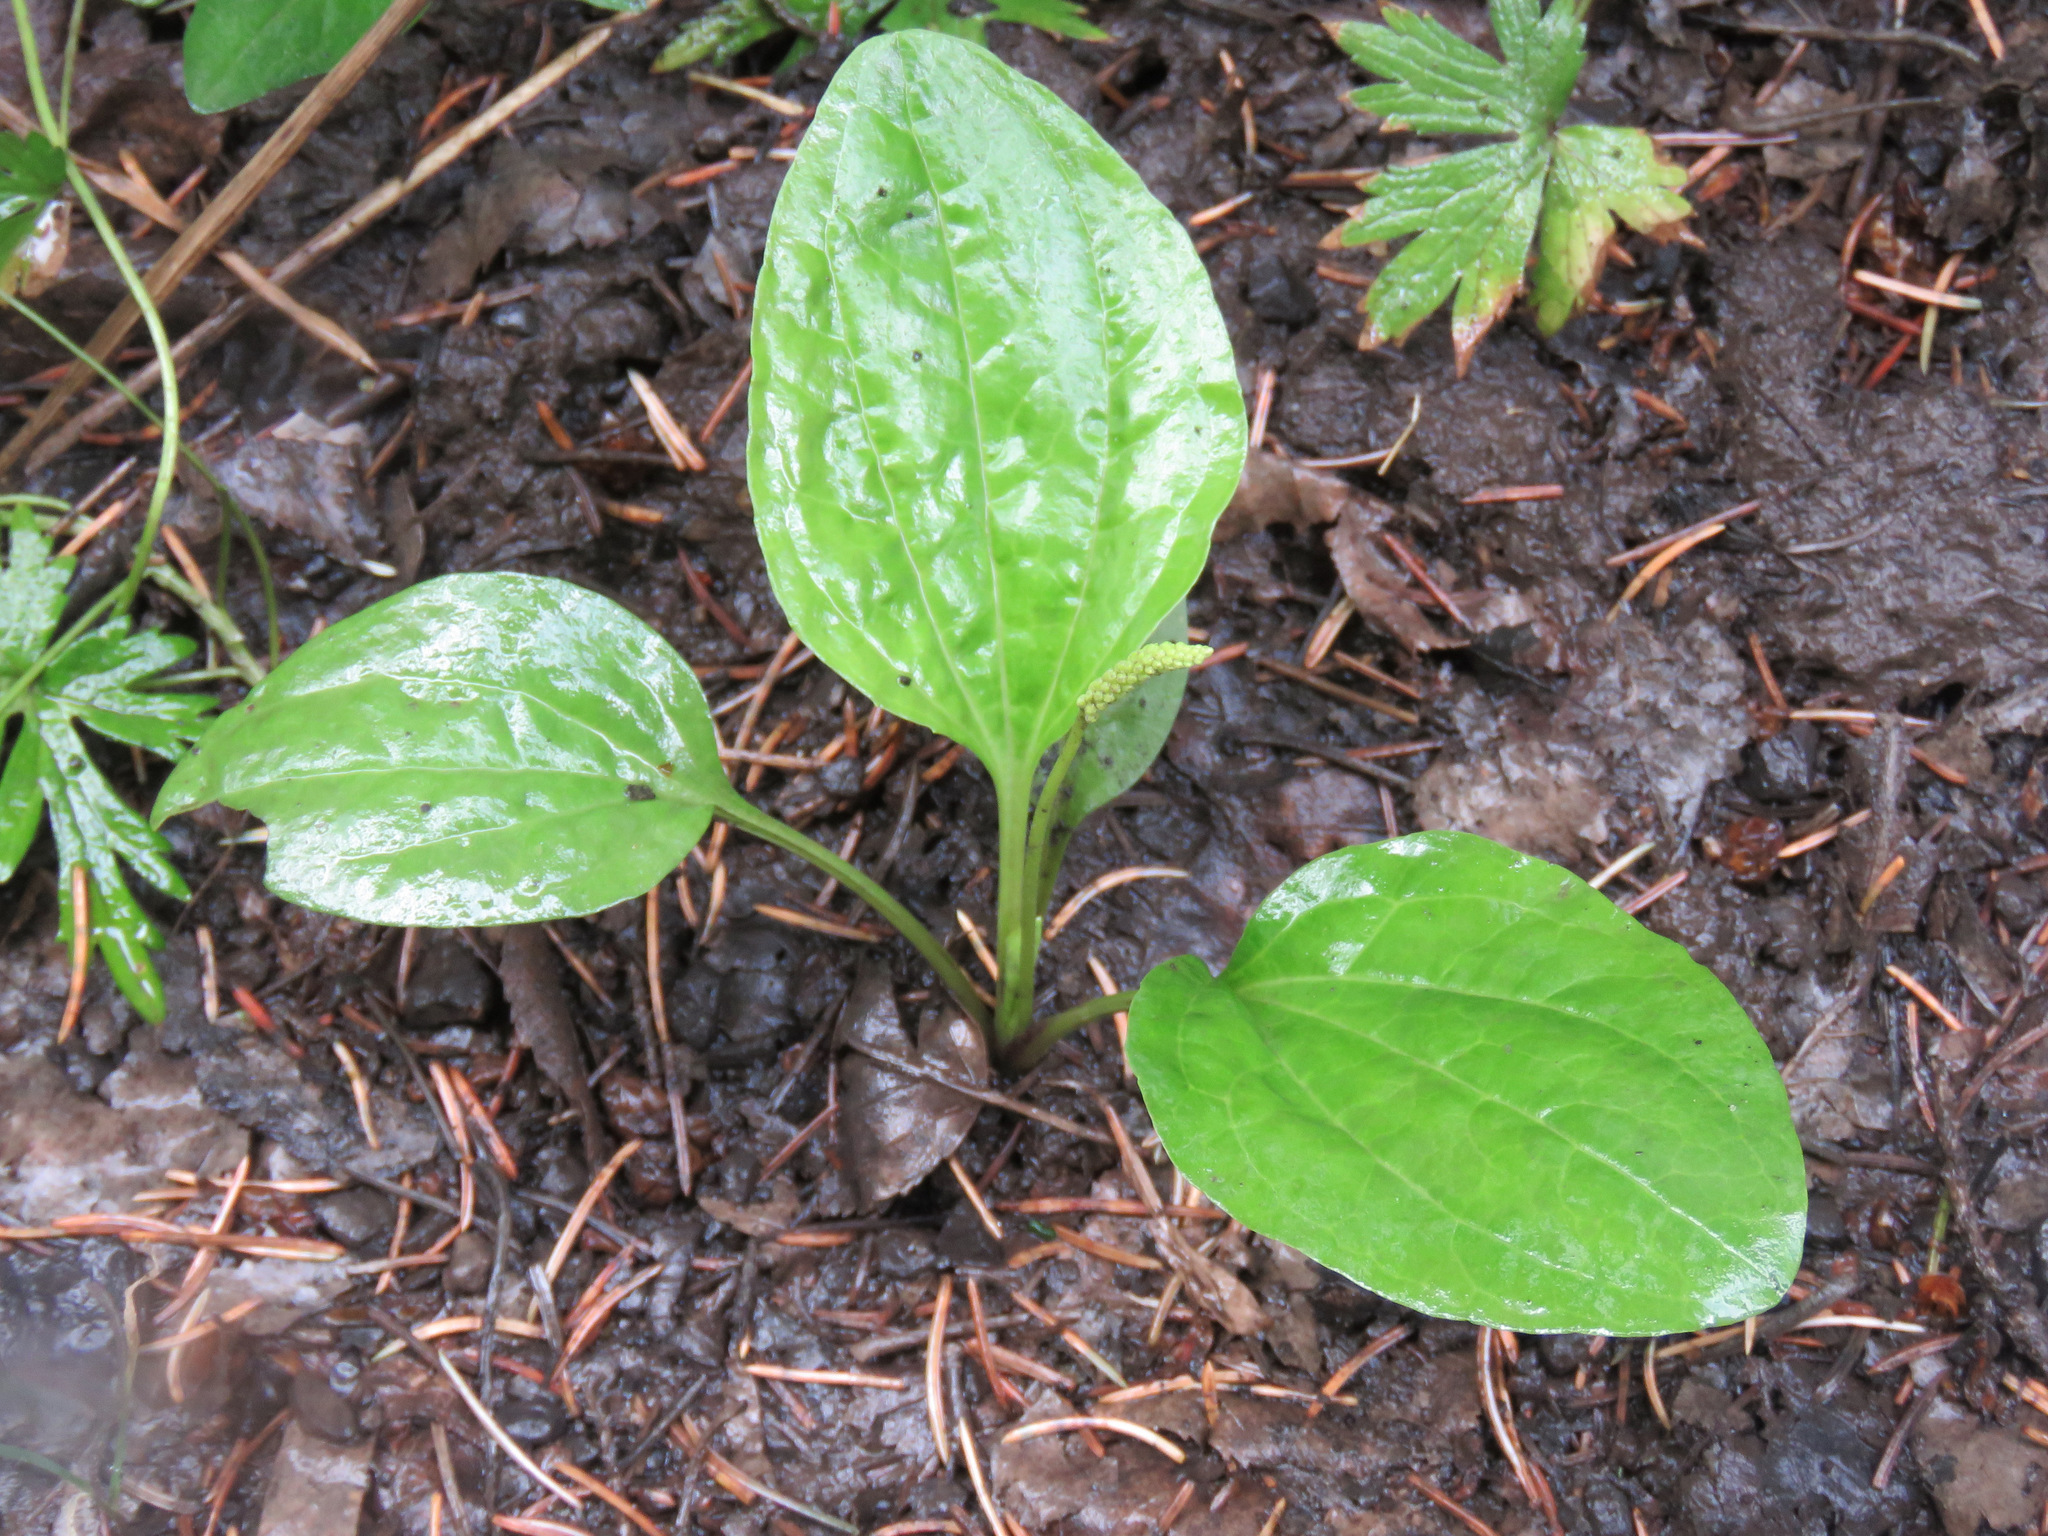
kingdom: Plantae
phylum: Tracheophyta
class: Magnoliopsida
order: Lamiales
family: Plantaginaceae
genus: Plantago
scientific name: Plantago major
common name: Common plantain
